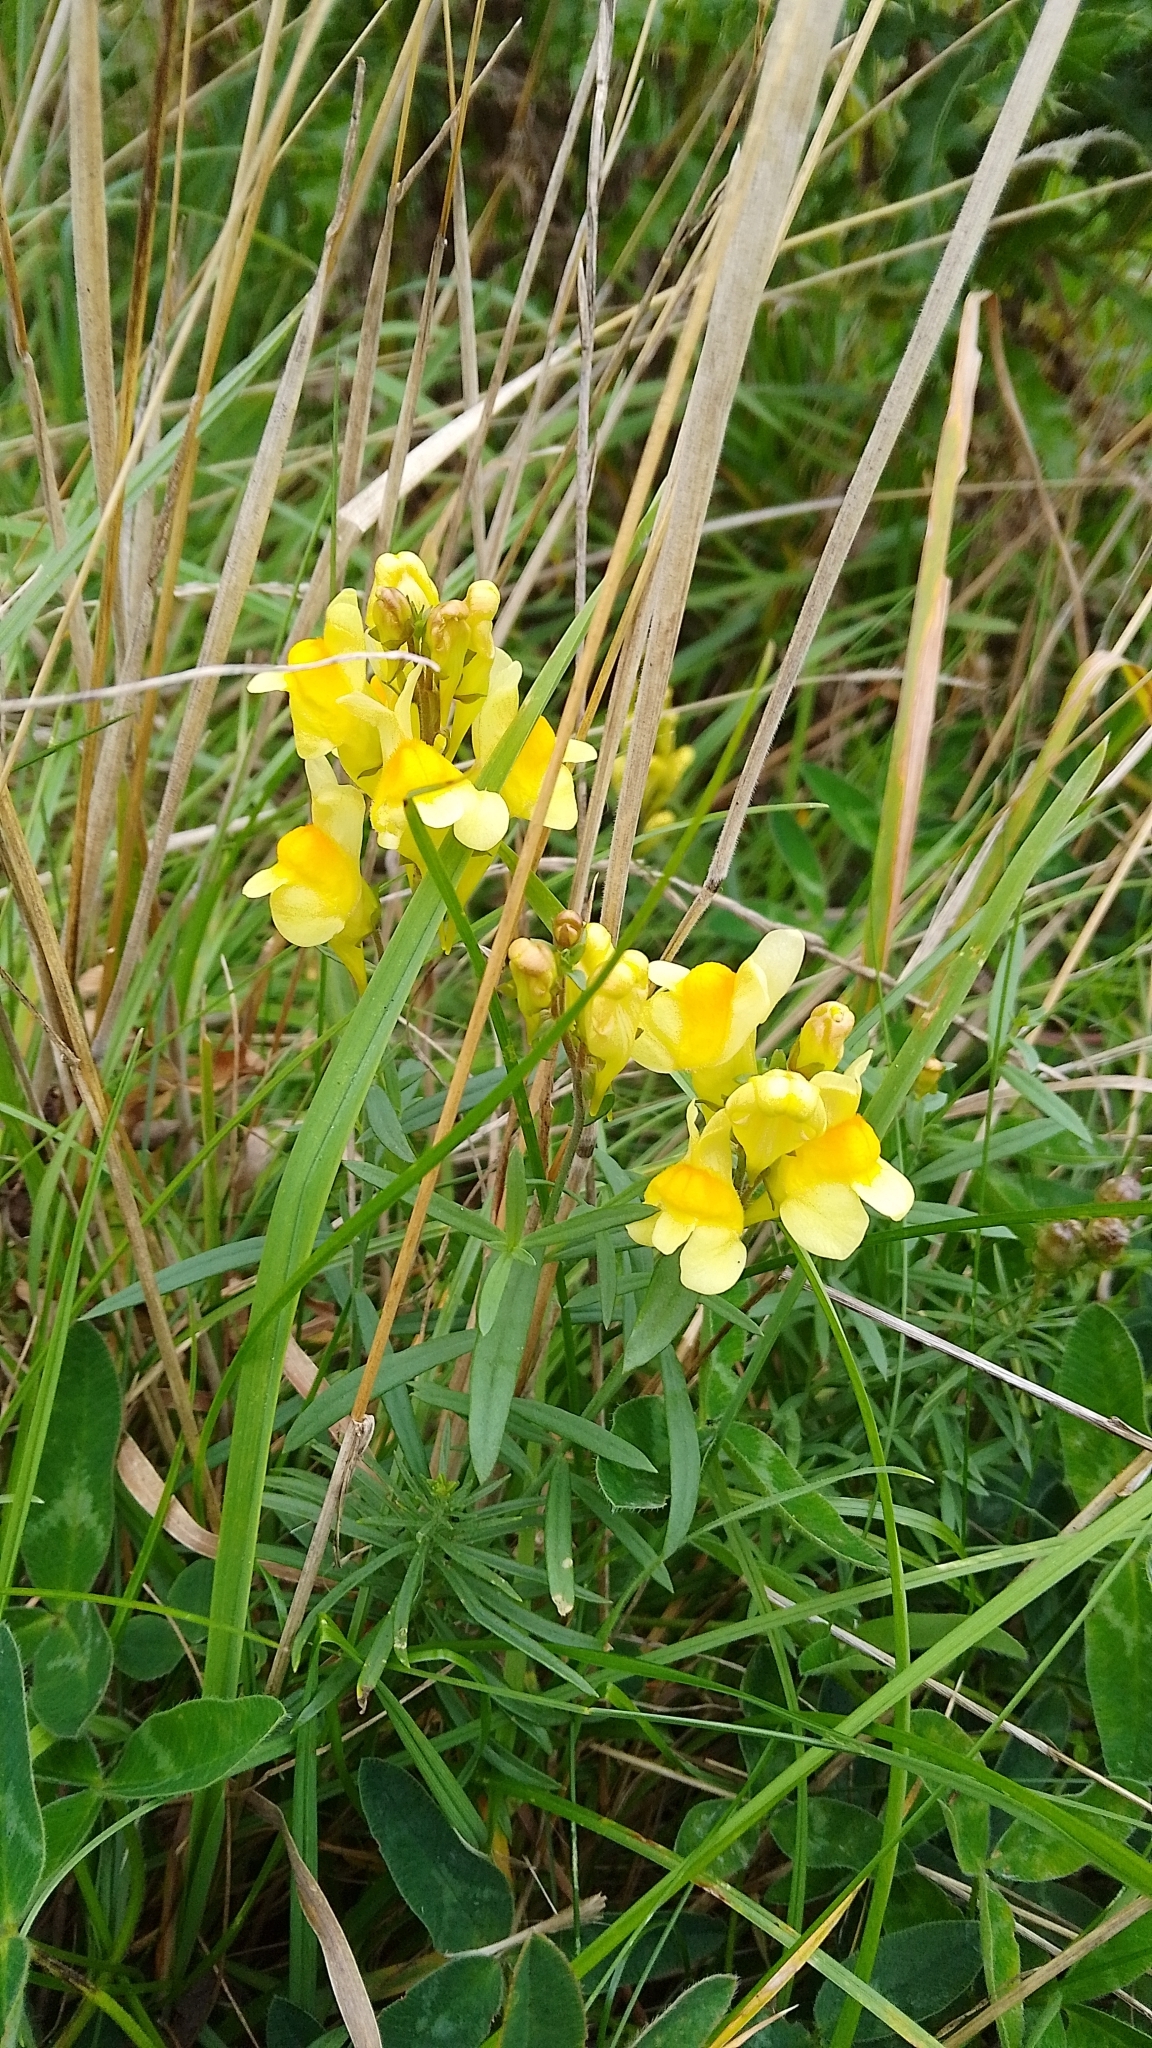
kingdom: Plantae
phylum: Tracheophyta
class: Magnoliopsida
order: Lamiales
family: Plantaginaceae
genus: Linaria
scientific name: Linaria vulgaris
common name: Butter and eggs
